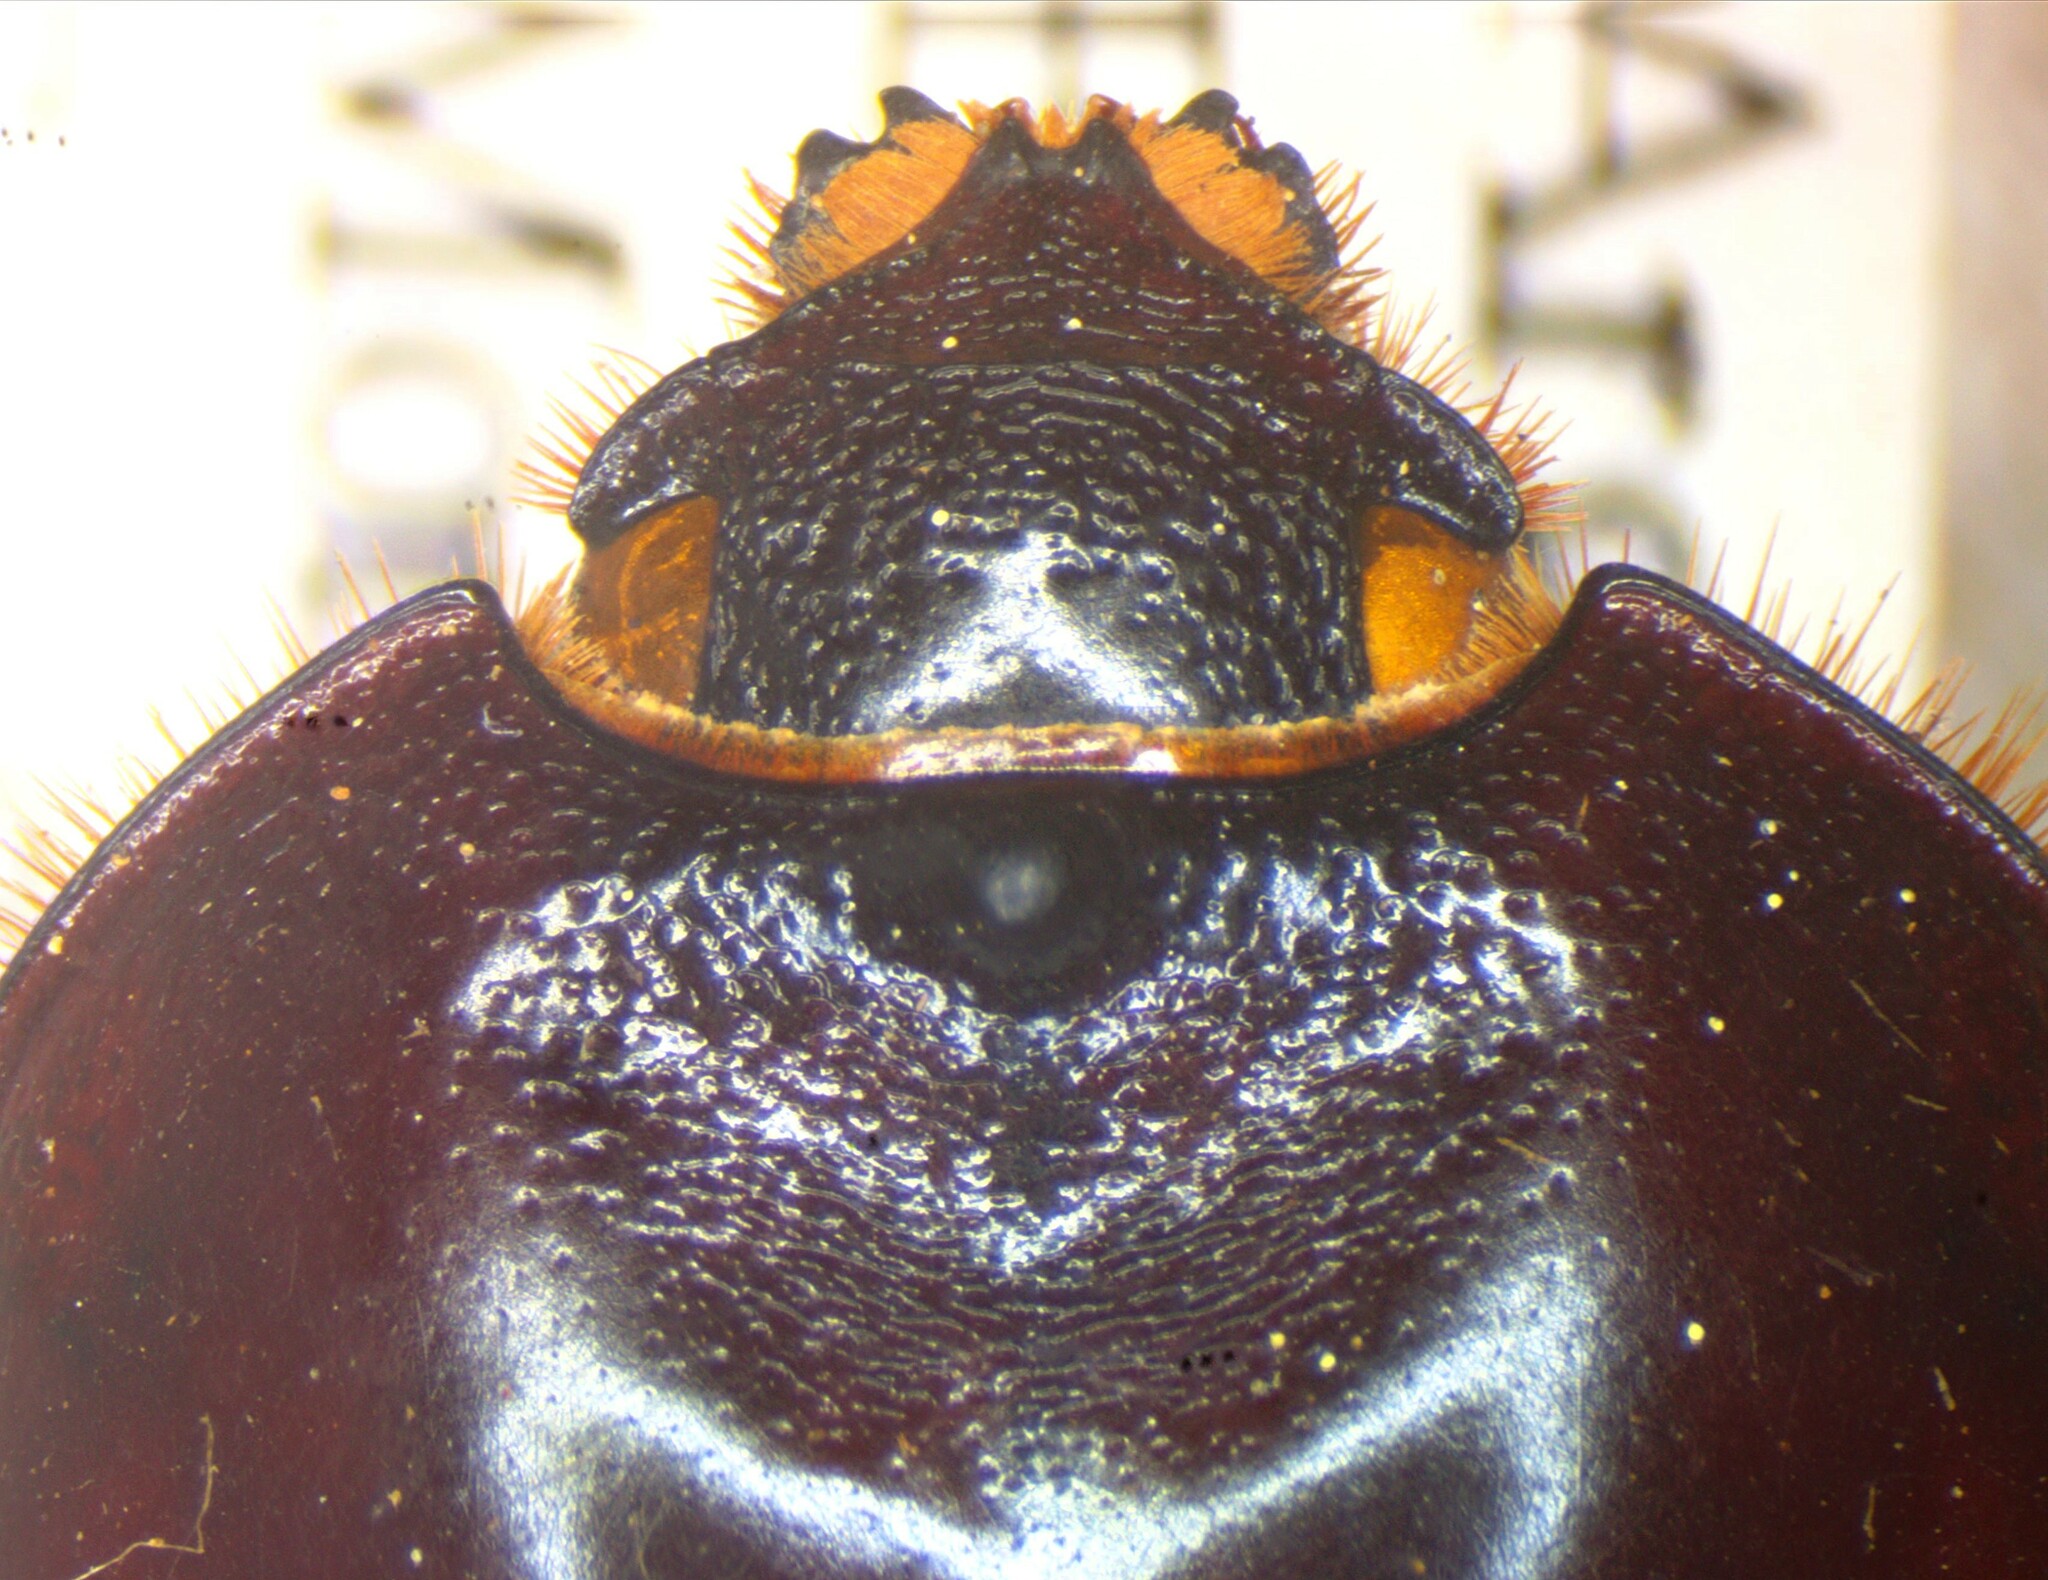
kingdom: Animalia
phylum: Arthropoda
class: Insecta
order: Coleoptera
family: Scarabaeidae
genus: Bothynus
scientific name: Bothynus striatellus
